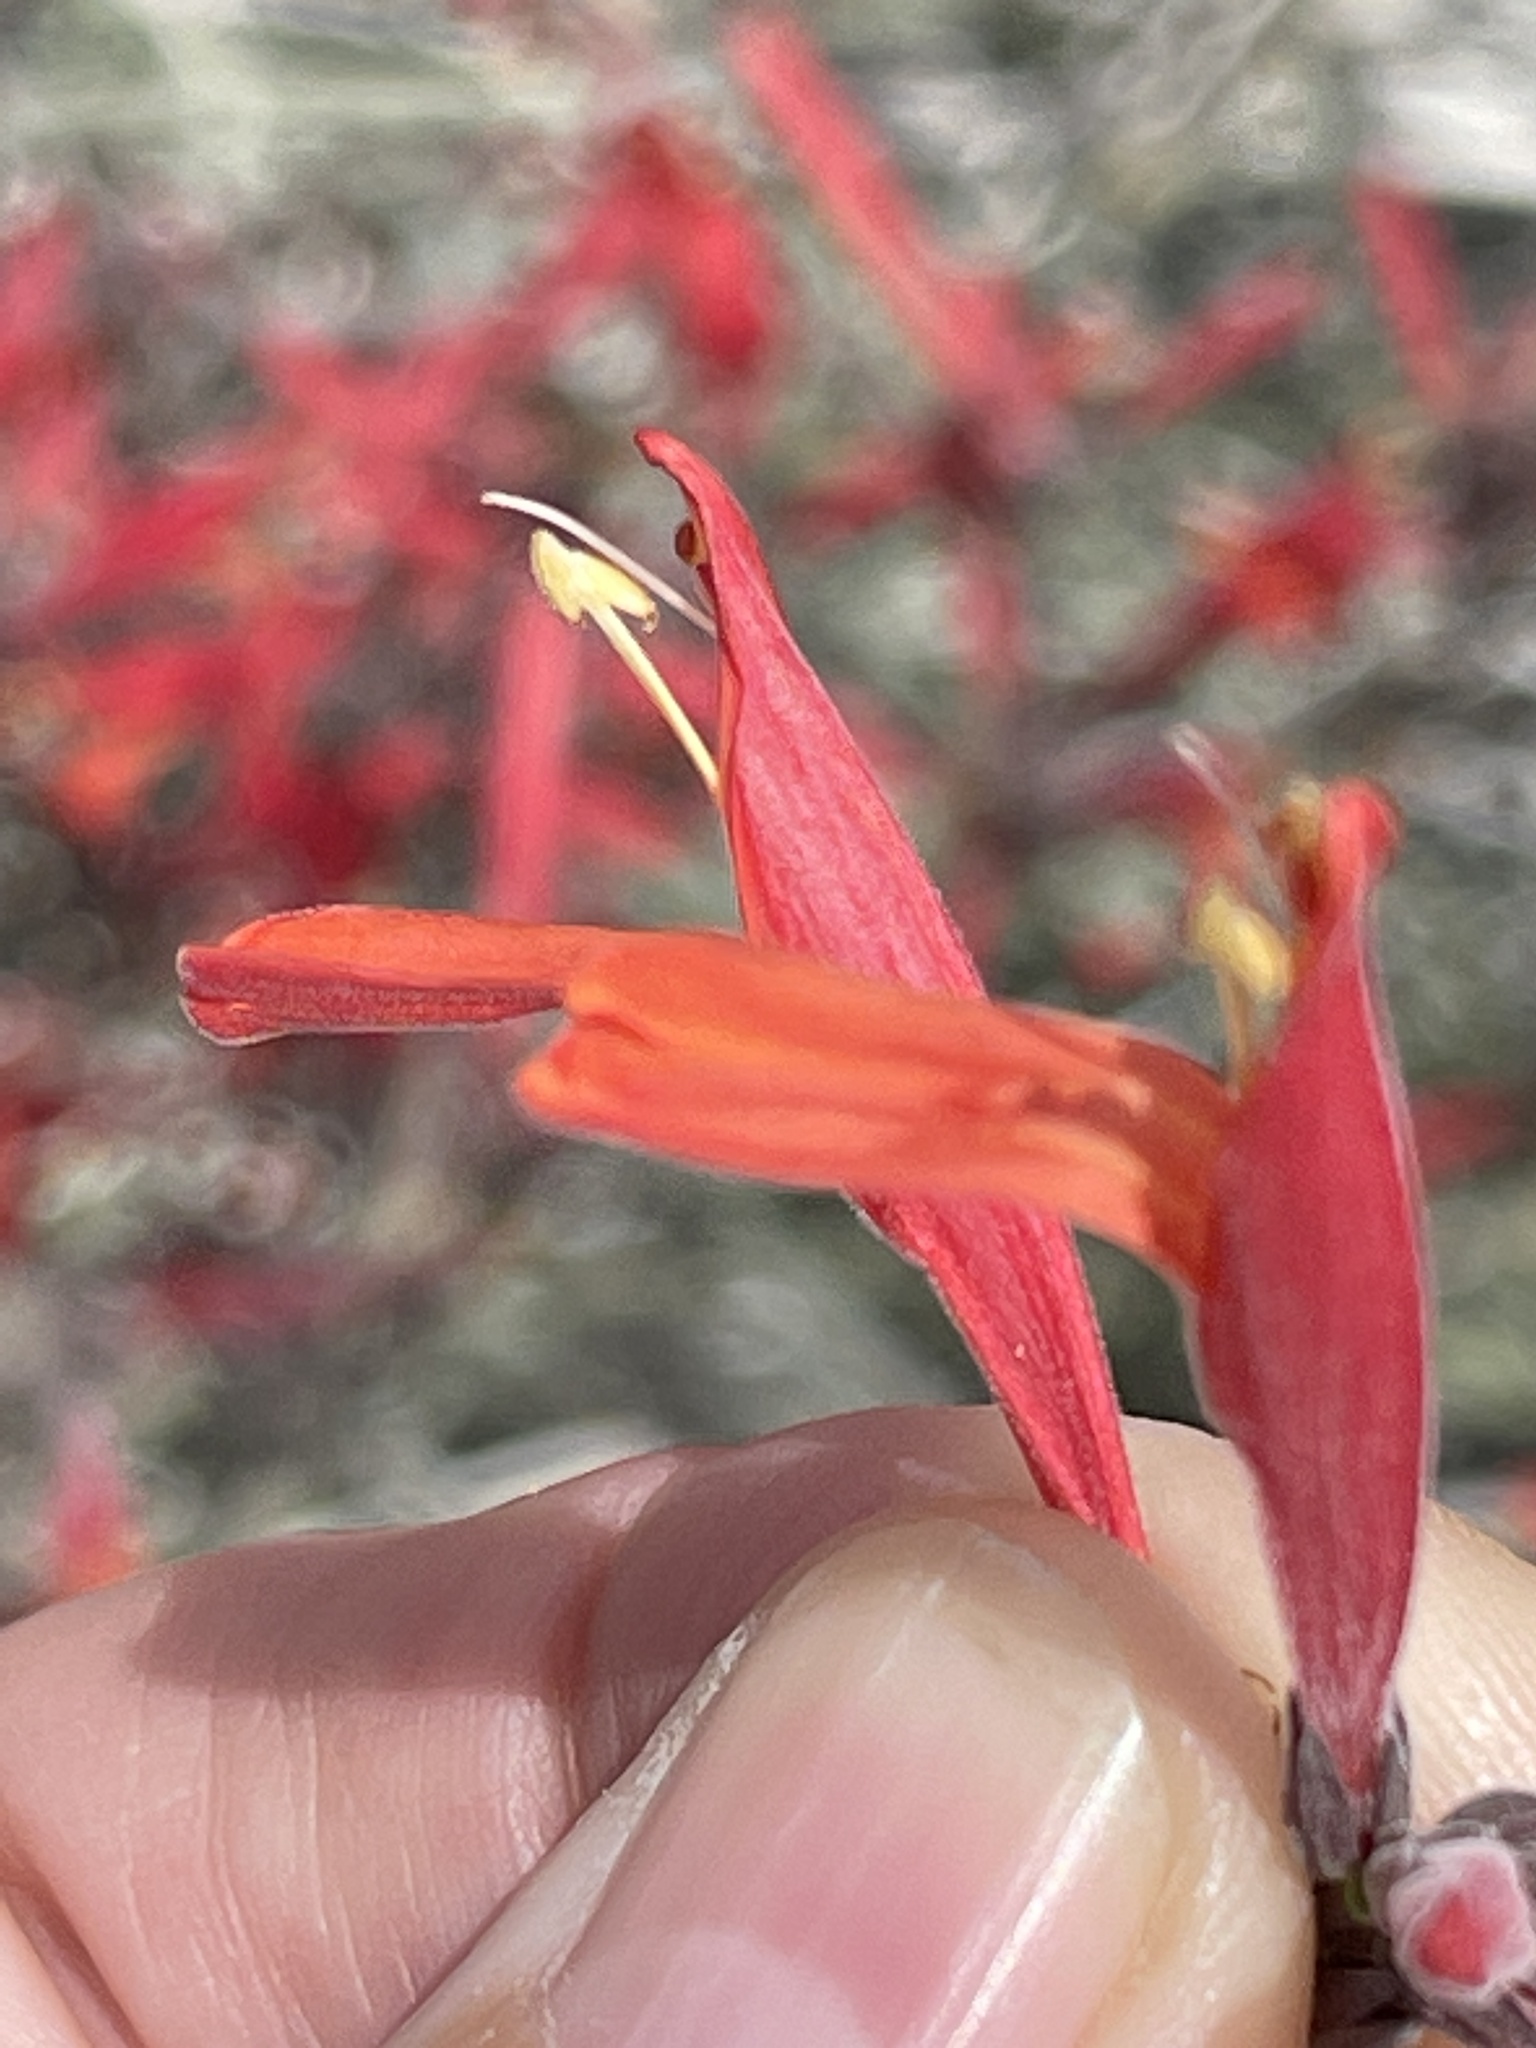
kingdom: Plantae
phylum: Tracheophyta
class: Magnoliopsida
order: Lamiales
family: Acanthaceae
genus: Justicia
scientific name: Justicia californica
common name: Chuparosa-honeysuckle
